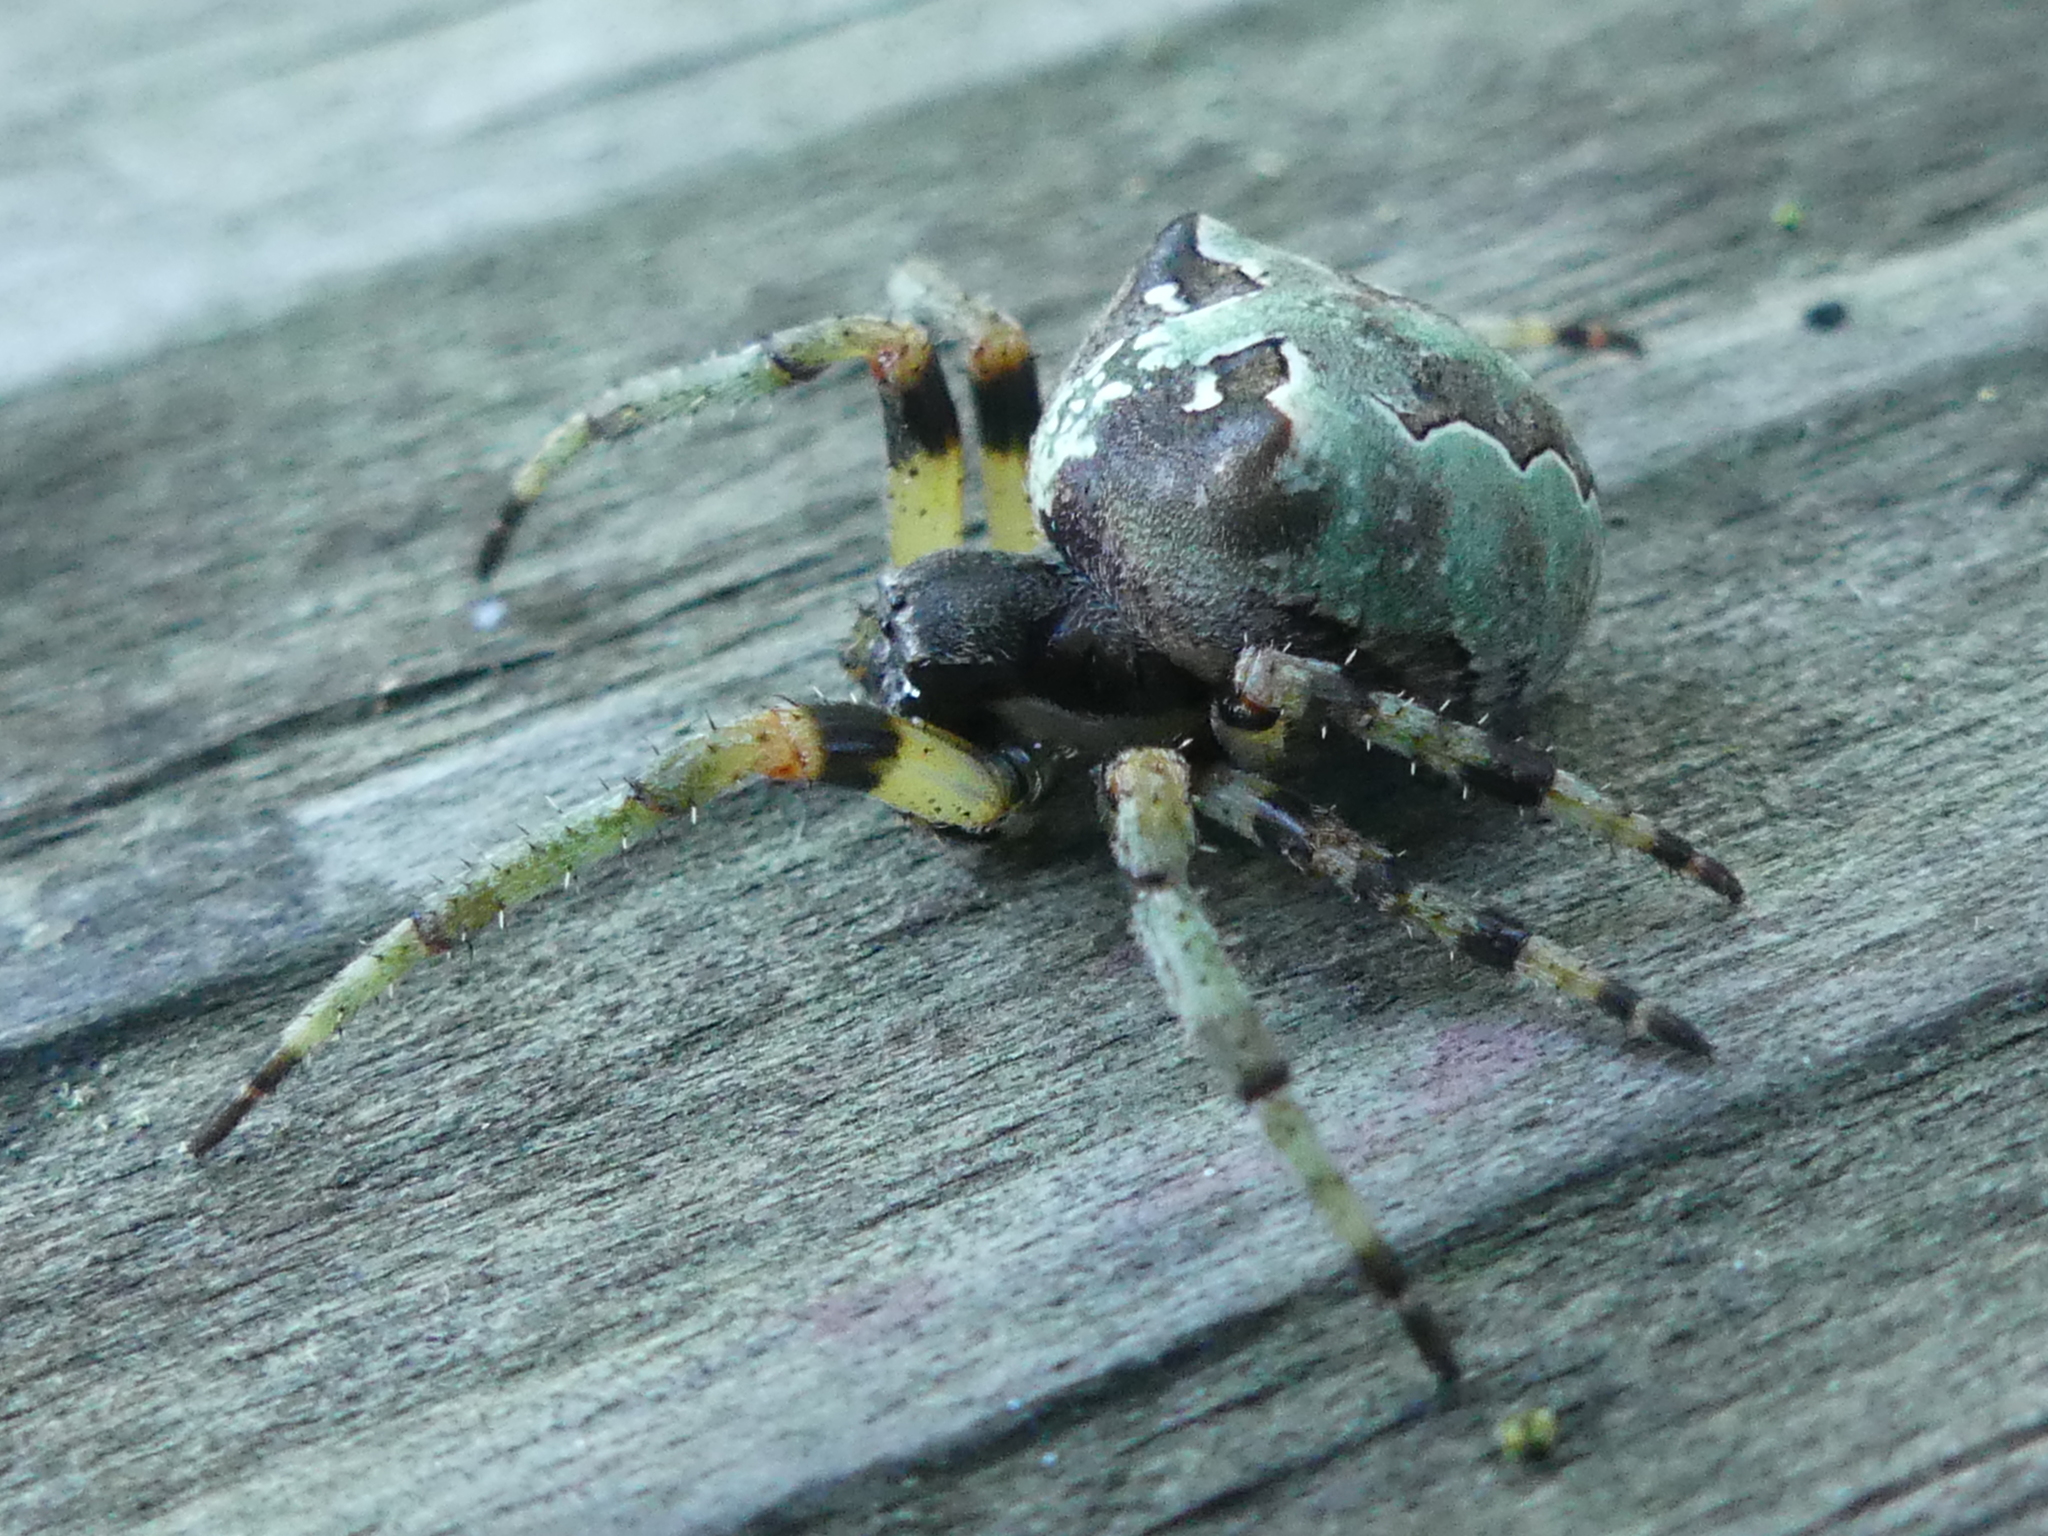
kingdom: Animalia
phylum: Arthropoda
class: Arachnida
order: Araneae
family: Araneidae
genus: Araneus
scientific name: Araneus bicentenarius
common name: Giant lichen orbweaver
